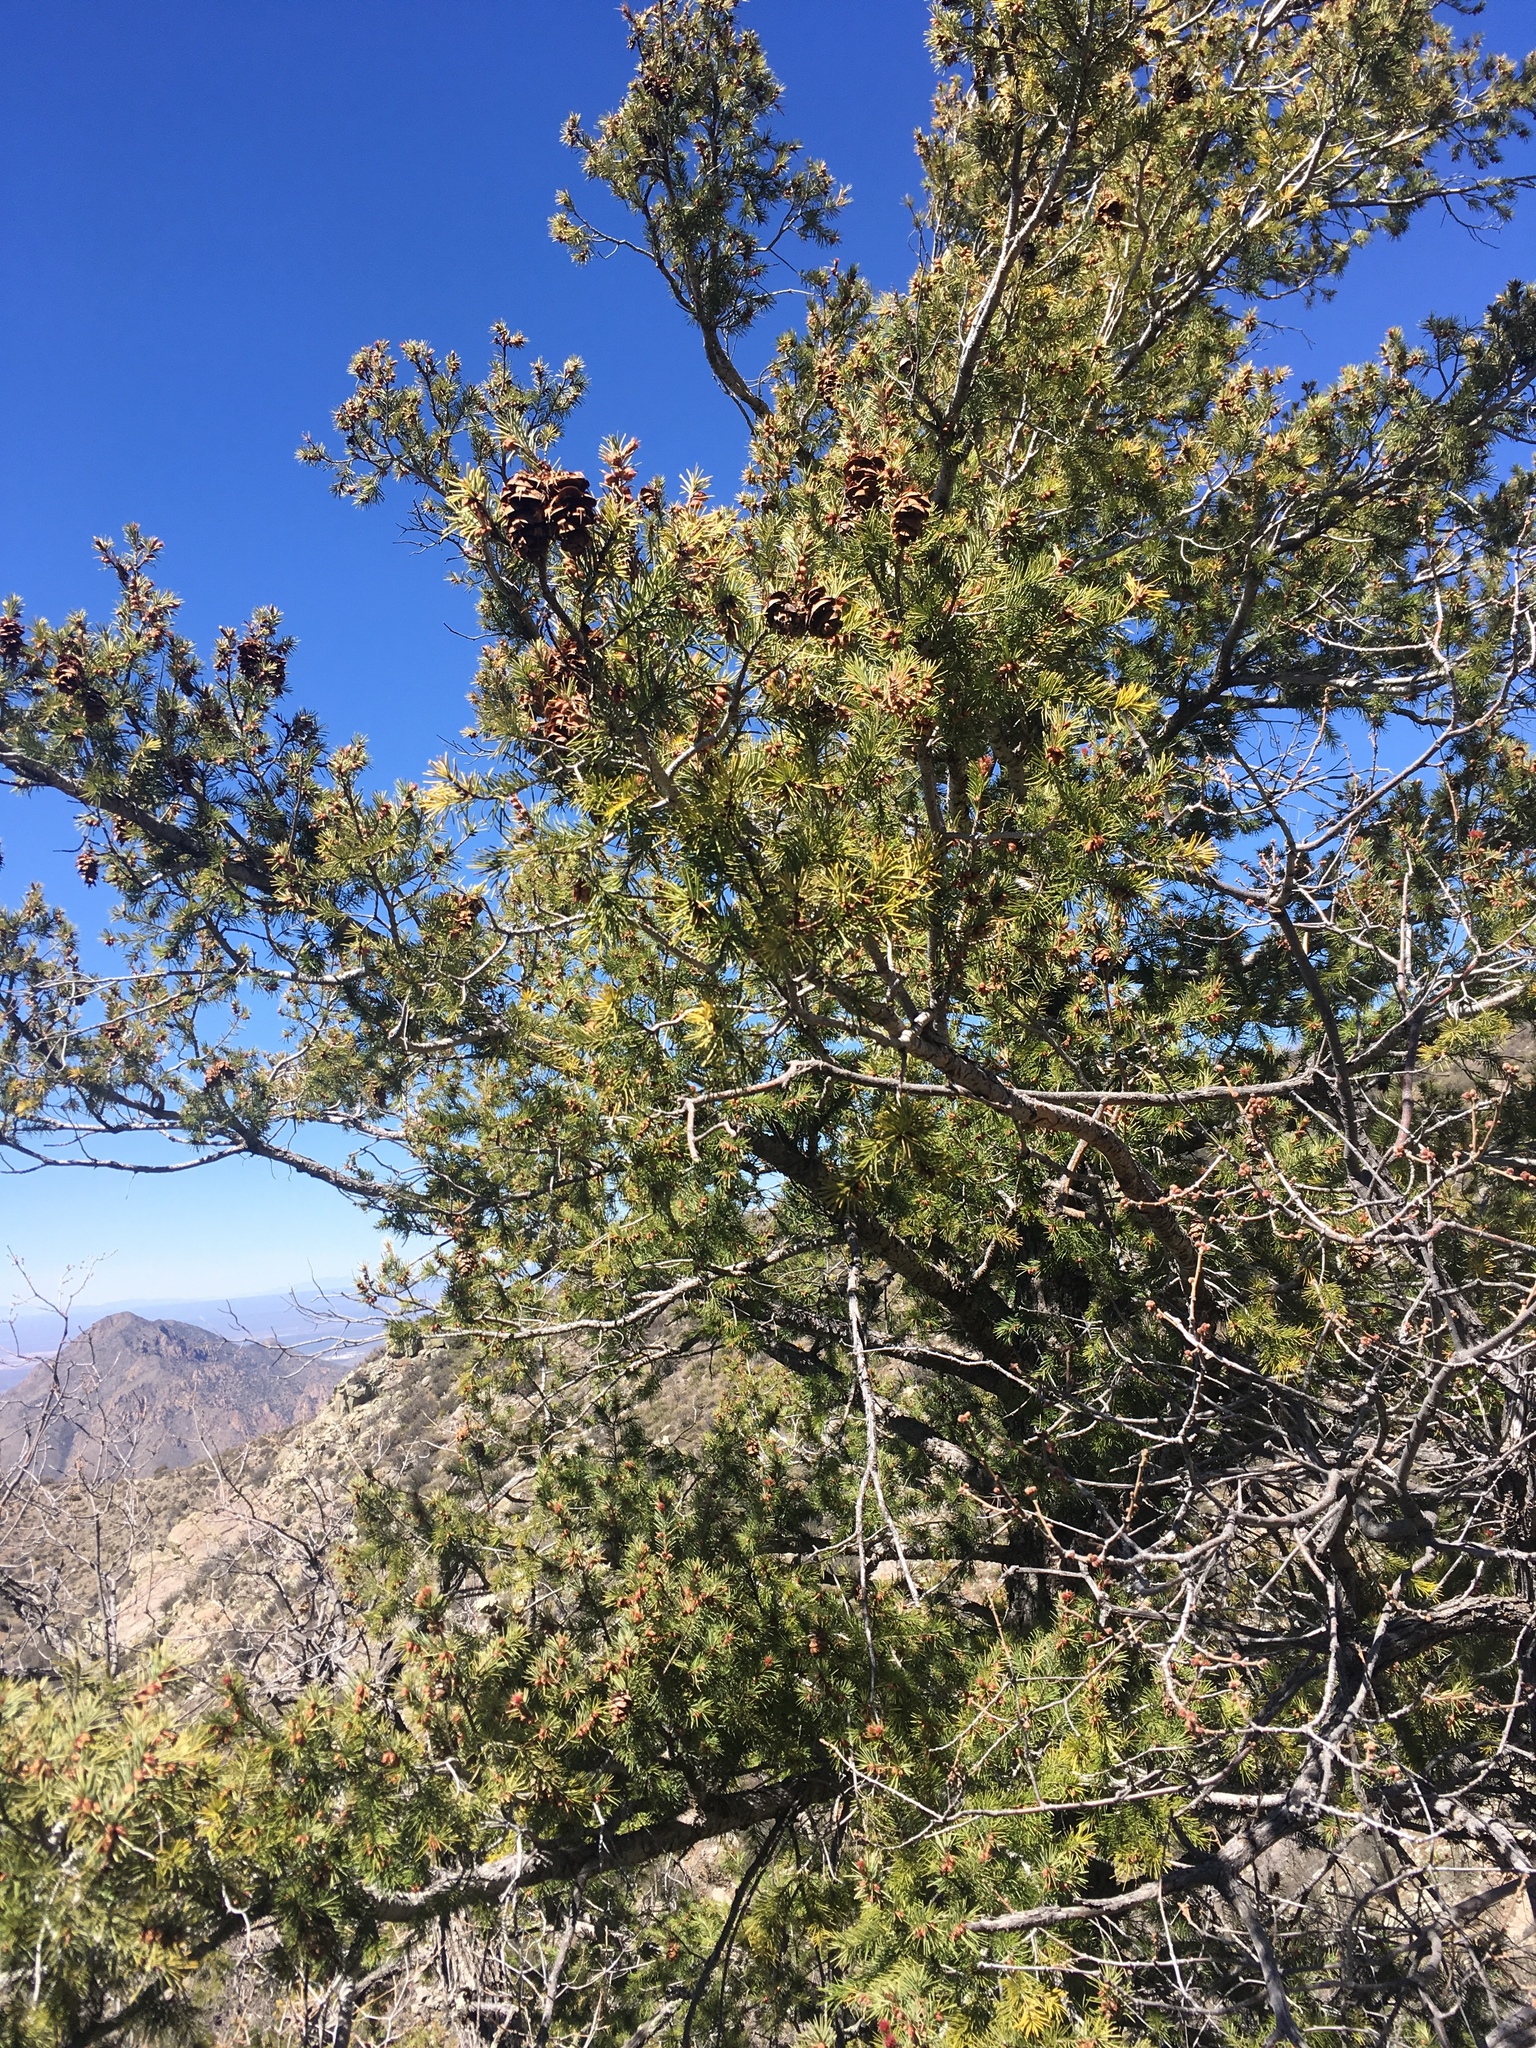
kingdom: Plantae
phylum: Tracheophyta
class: Pinopsida
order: Pinales
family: Pinaceae
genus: Pseudotsuga
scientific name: Pseudotsuga menziesii
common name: Douglas fir
